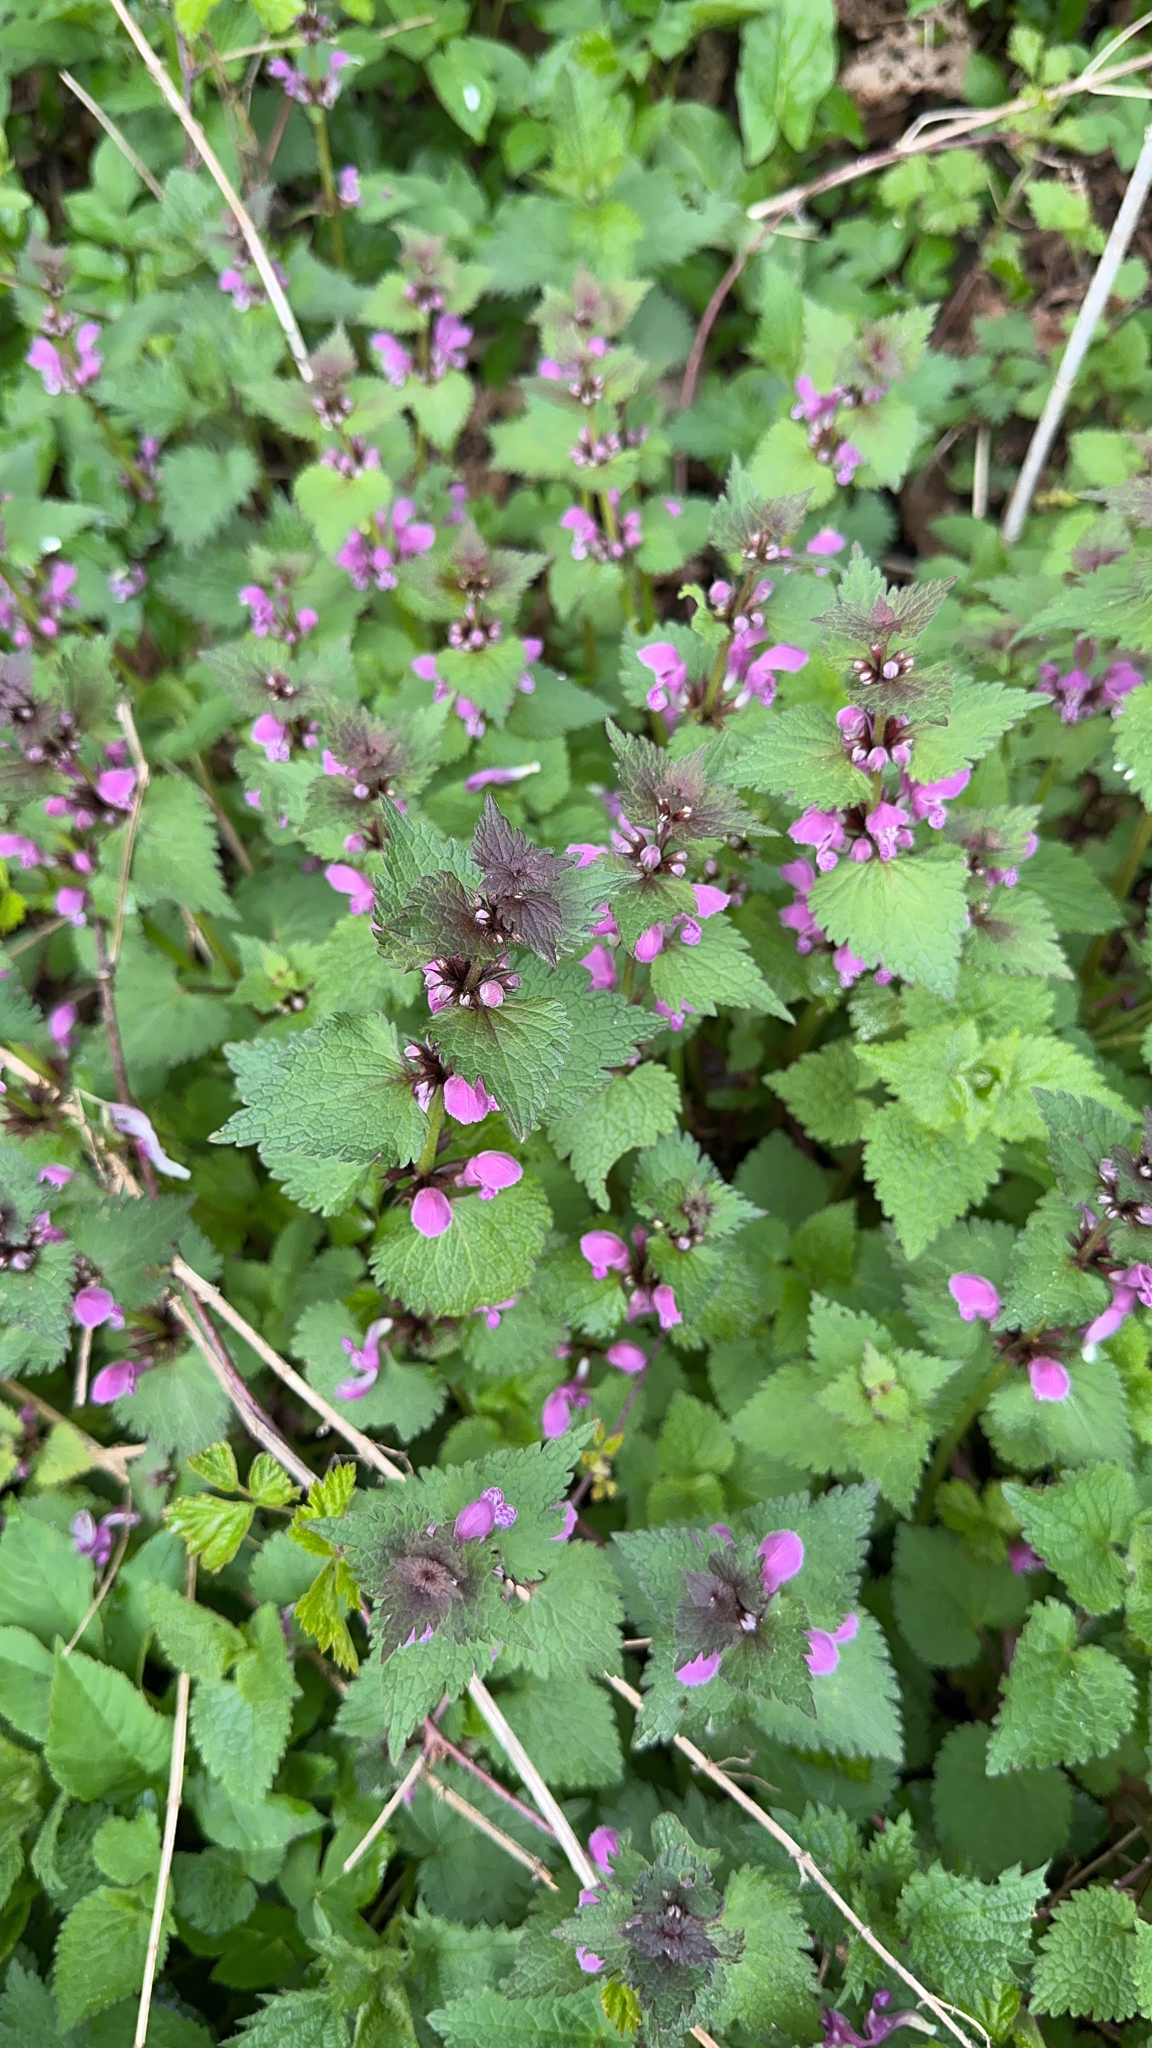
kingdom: Plantae
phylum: Tracheophyta
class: Magnoliopsida
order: Lamiales
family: Lamiaceae
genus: Lamium
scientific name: Lamium maculatum
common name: Spotted dead-nettle
